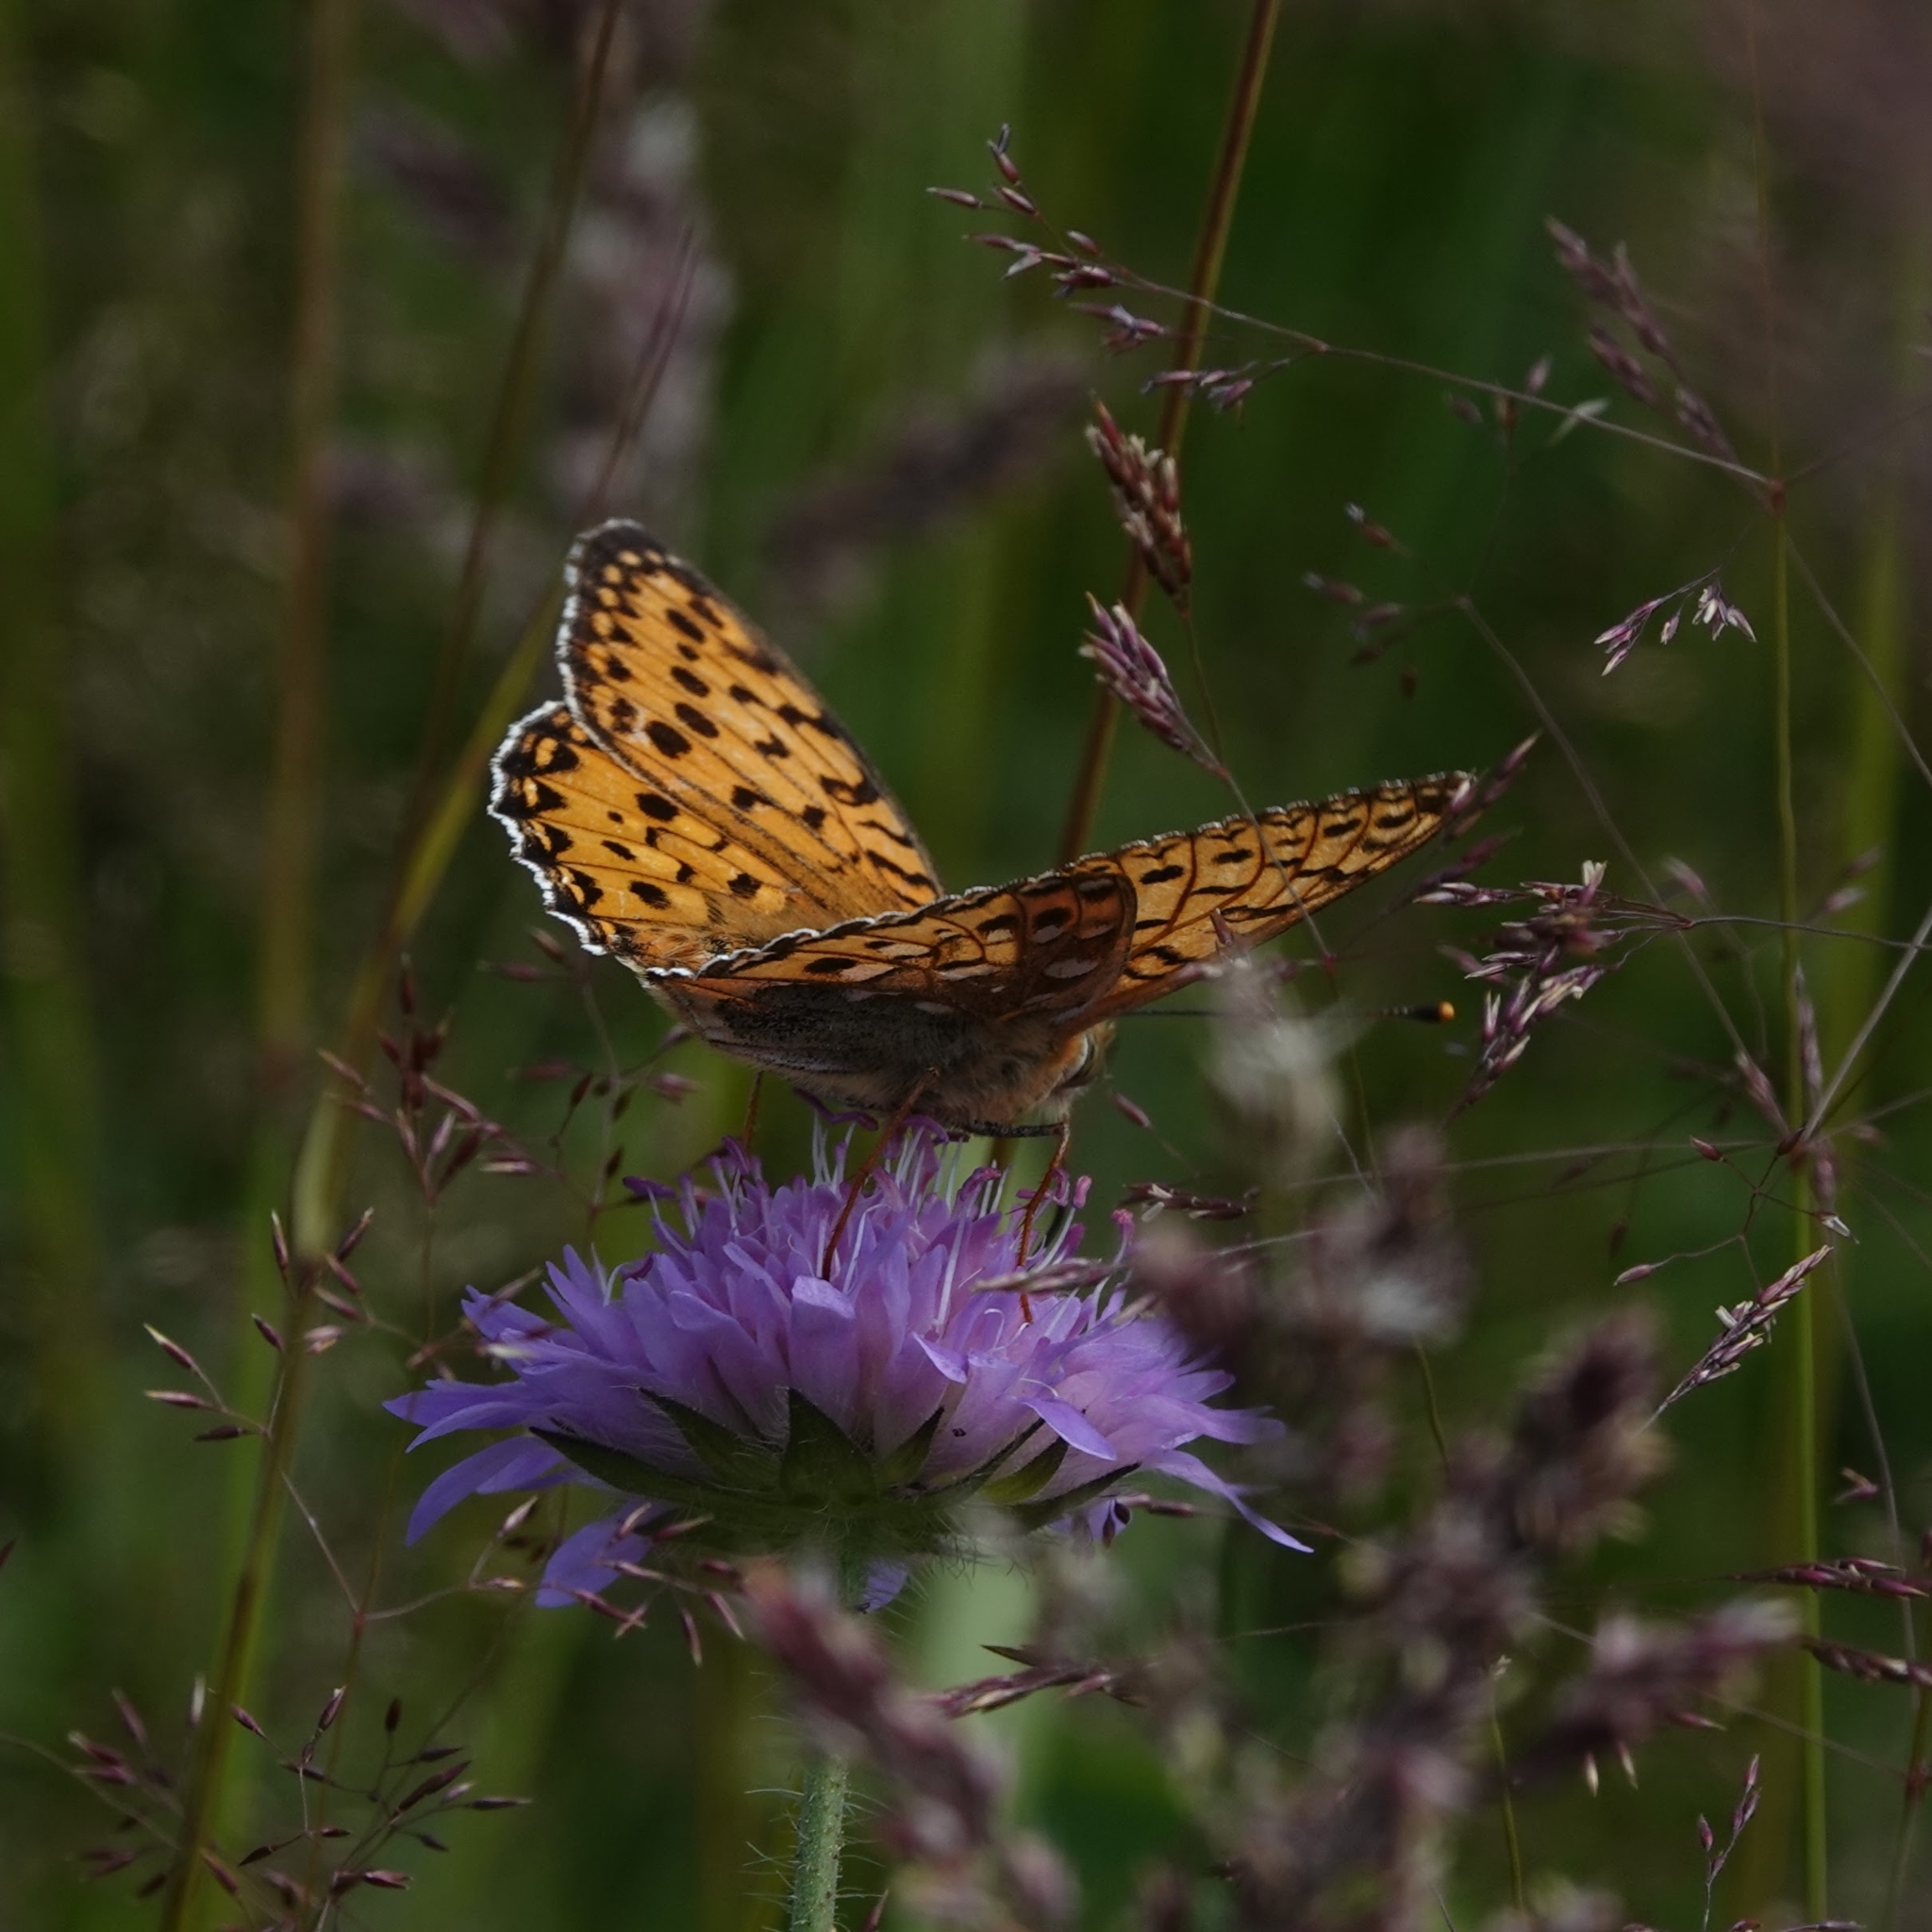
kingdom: Animalia
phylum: Arthropoda
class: Insecta
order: Lepidoptera
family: Nymphalidae
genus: Speyeria
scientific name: Speyeria aglaja
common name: Dark green fritillary
